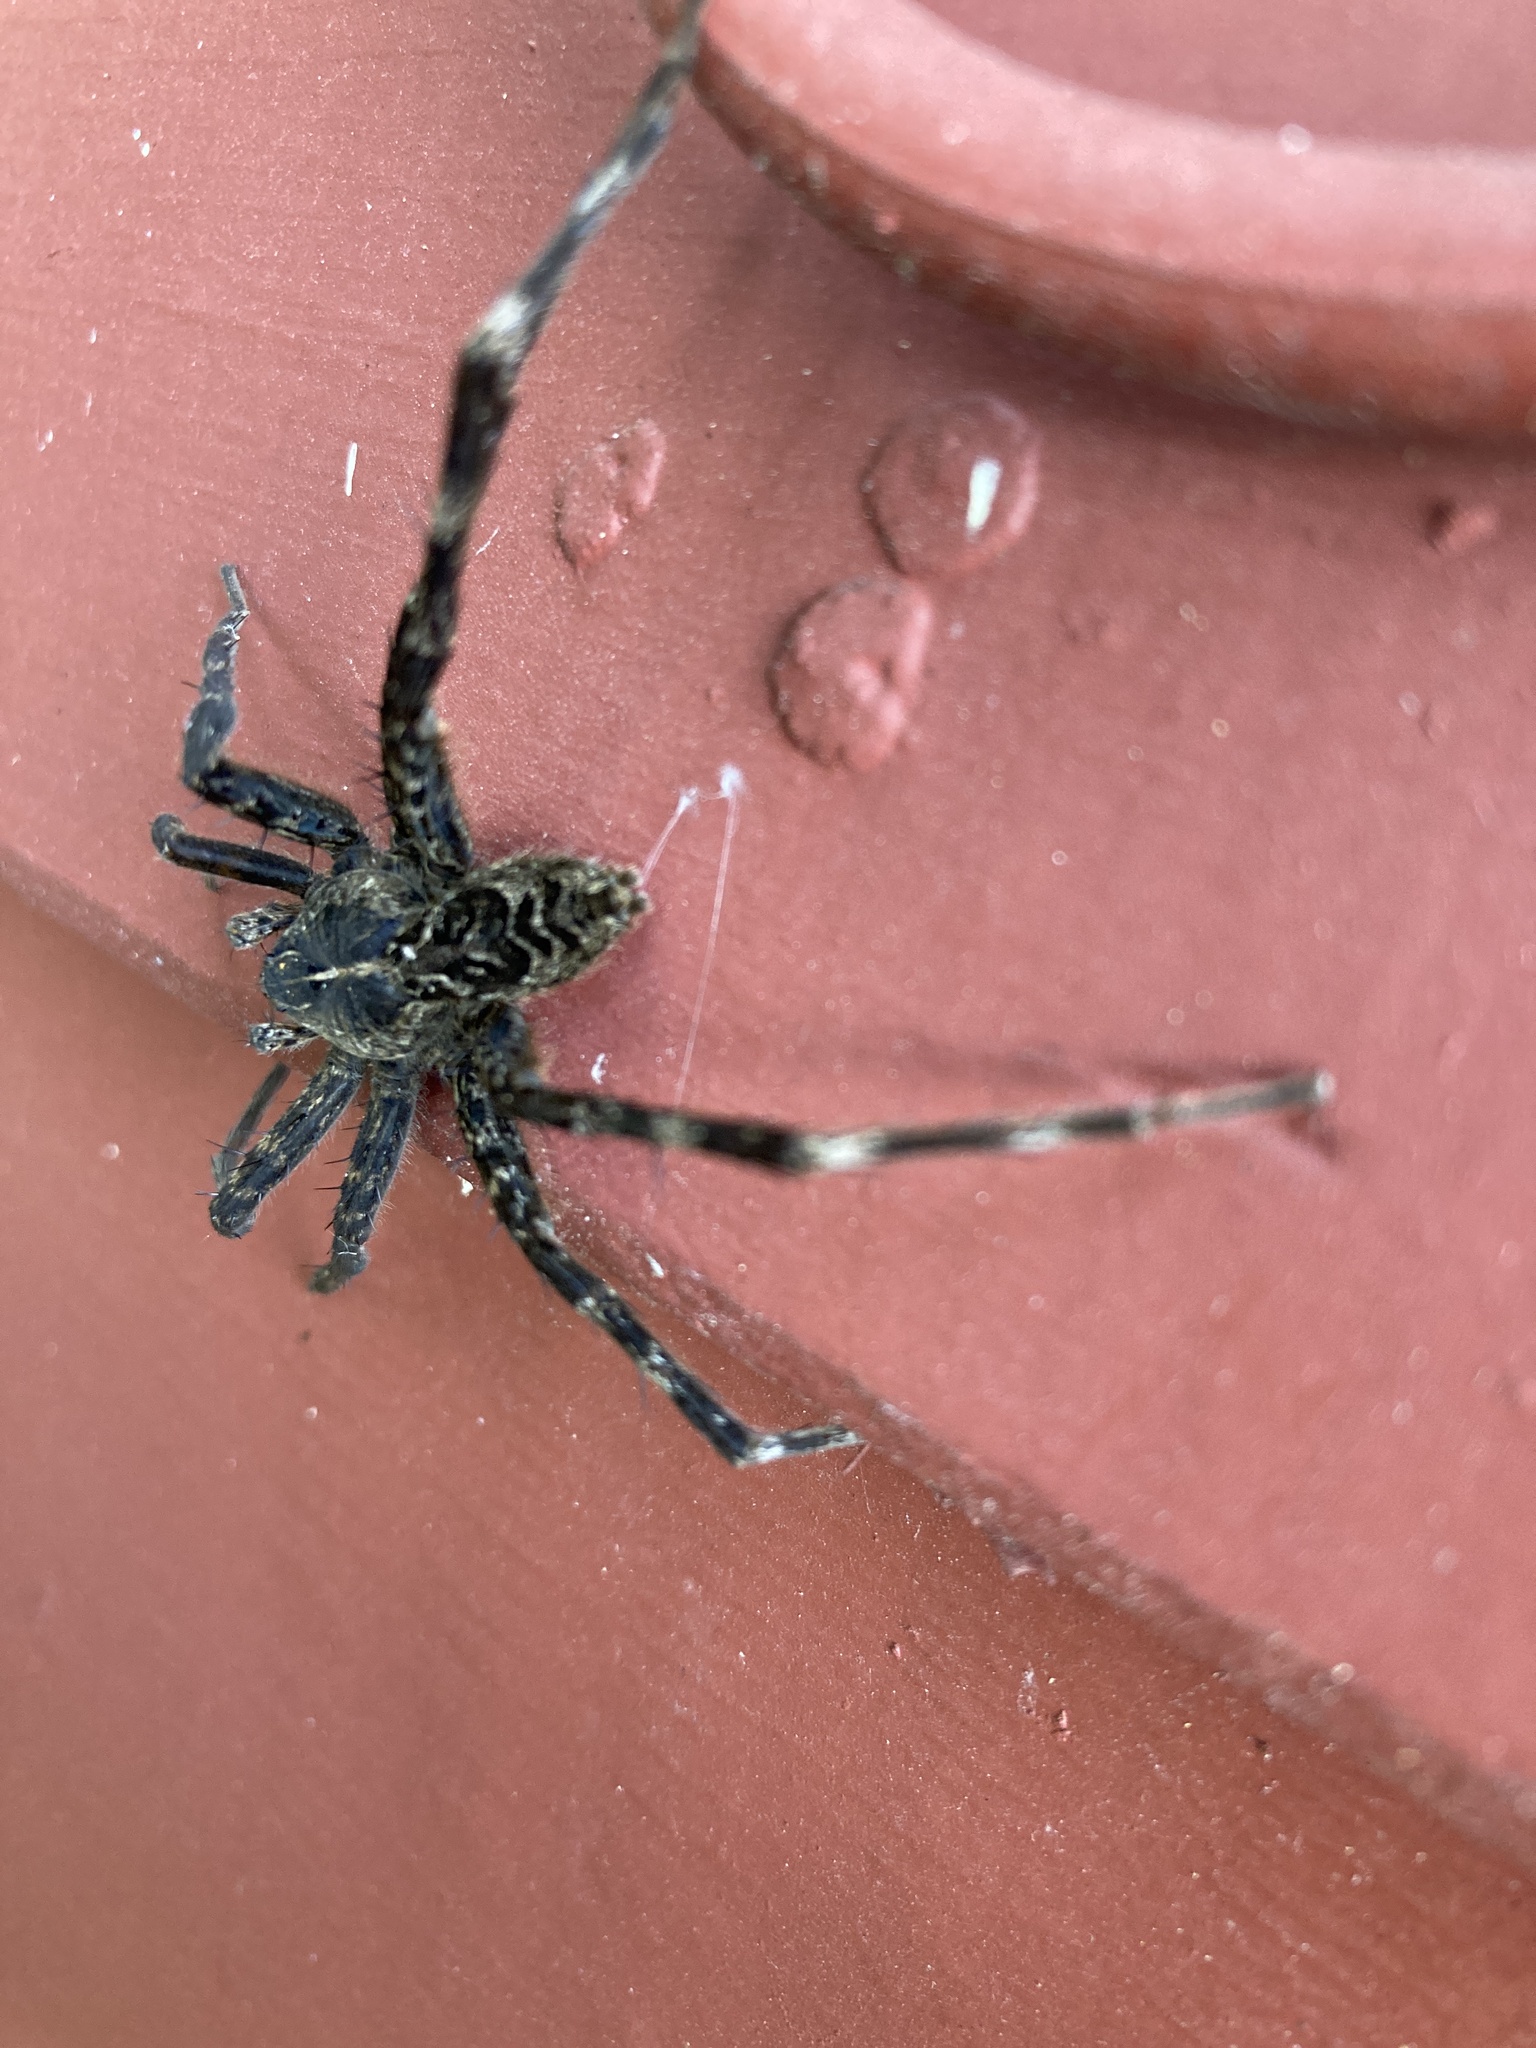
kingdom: Animalia
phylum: Arthropoda
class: Arachnida
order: Araneae
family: Pisauridae
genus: Dolomedes
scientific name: Dolomedes scriptus
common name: Striped fishing spider
